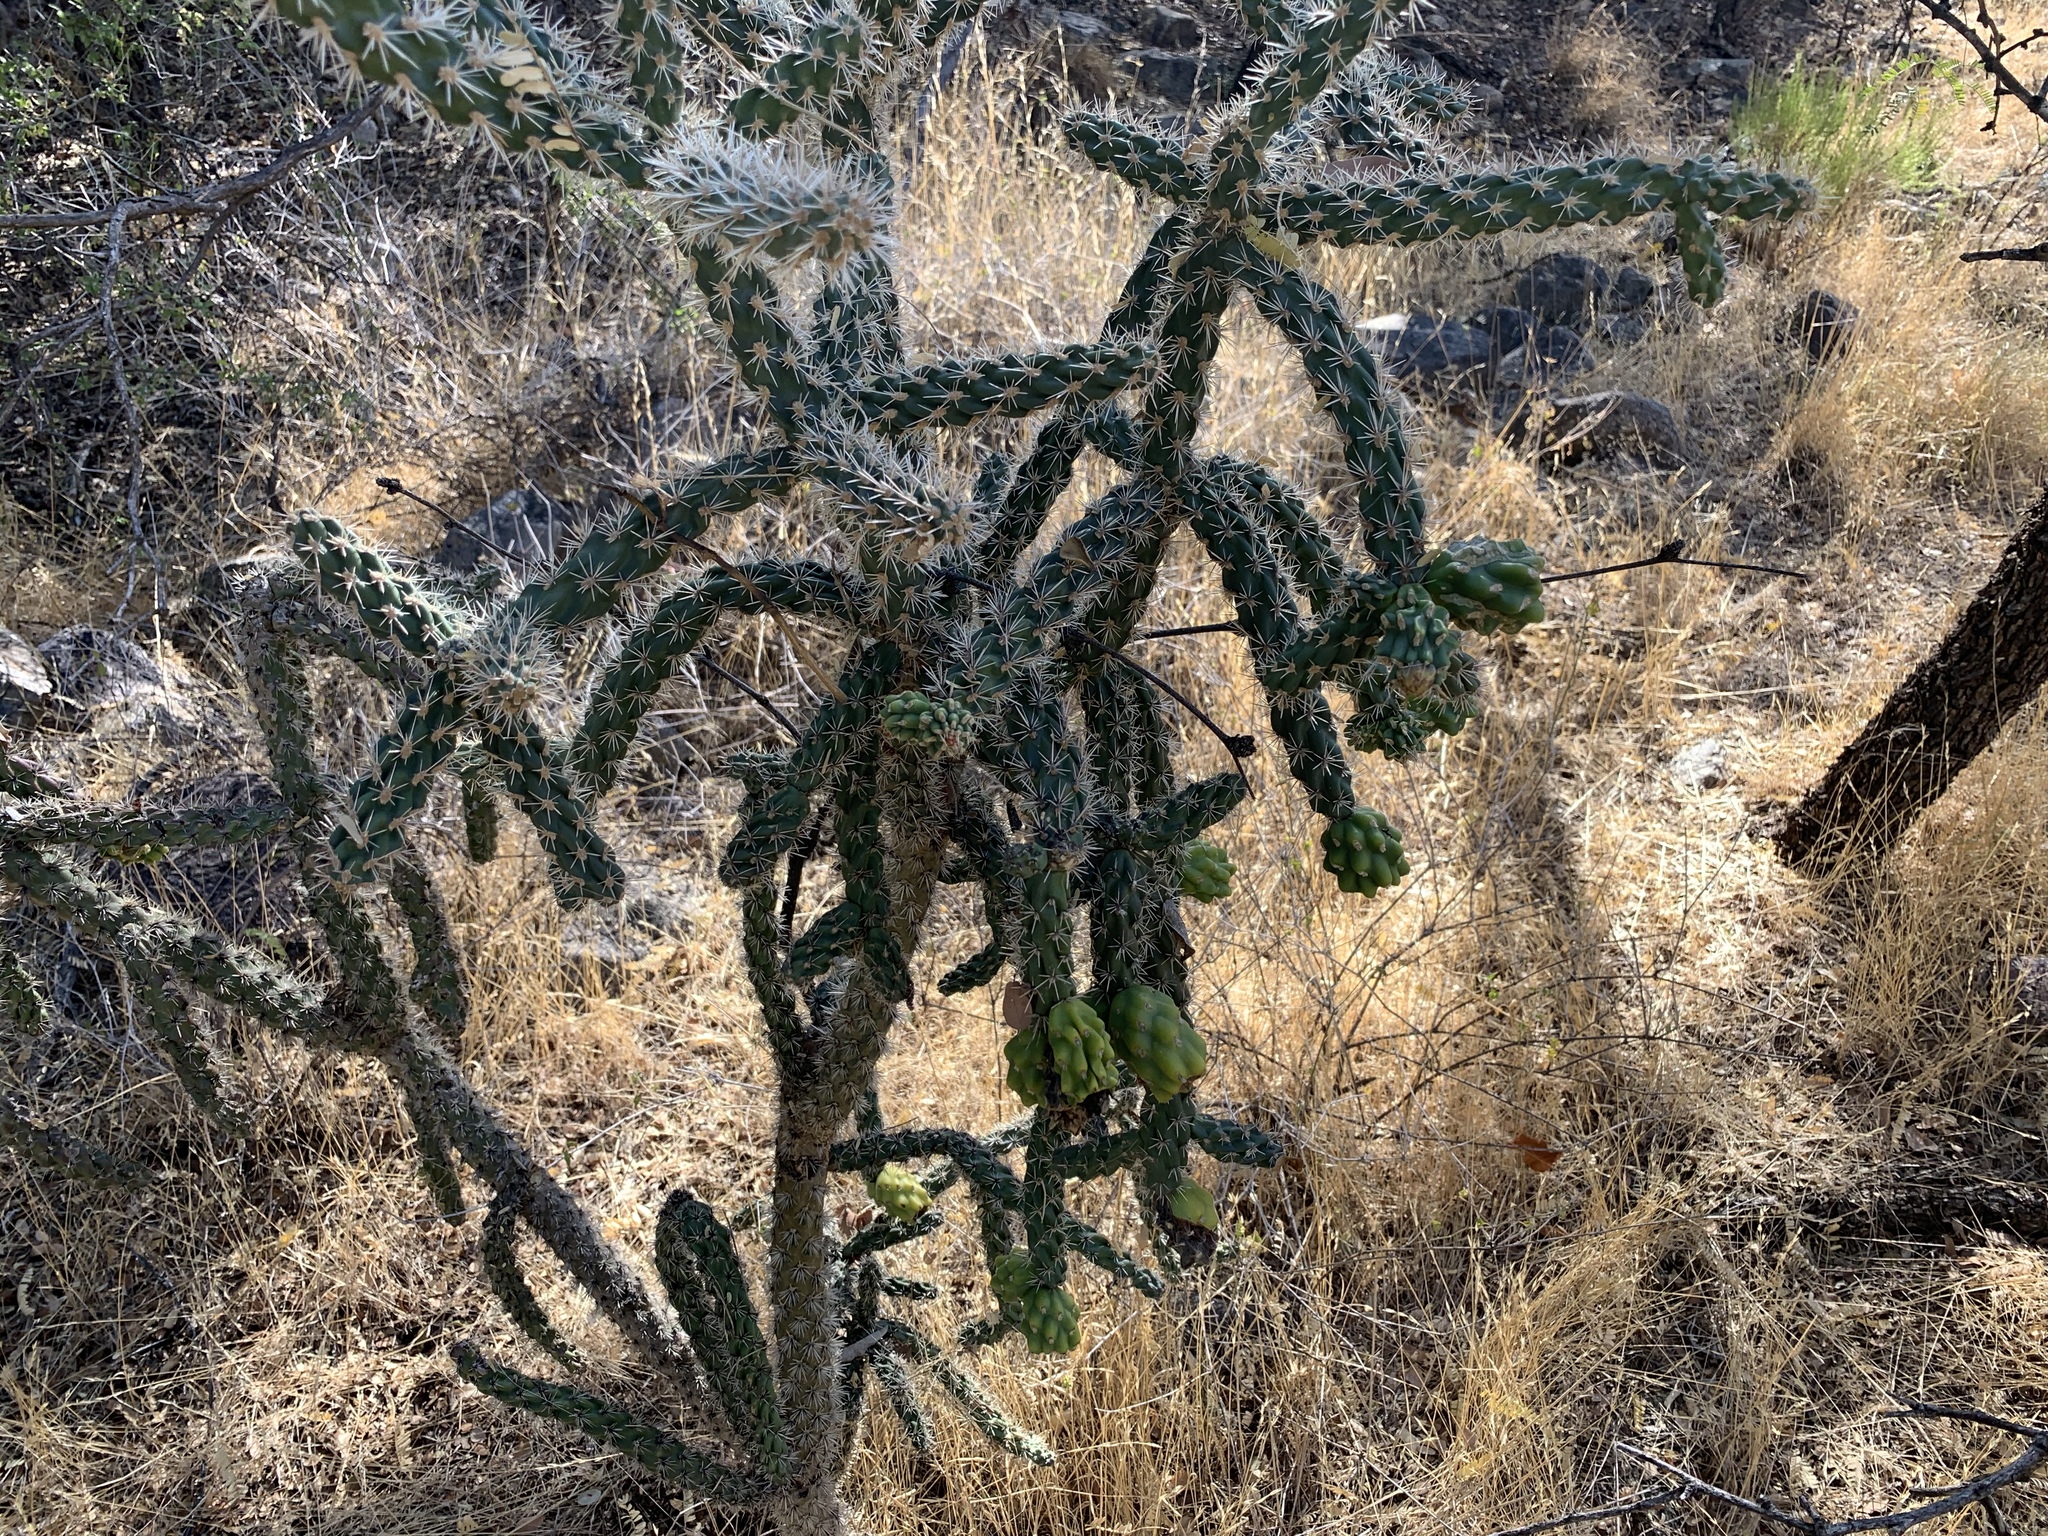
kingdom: Plantae
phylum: Tracheophyta
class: Magnoliopsida
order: Caryophyllales
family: Cactaceae
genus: Cylindropuntia
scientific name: Cylindropuntia imbricata
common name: Candelabrum cactus
